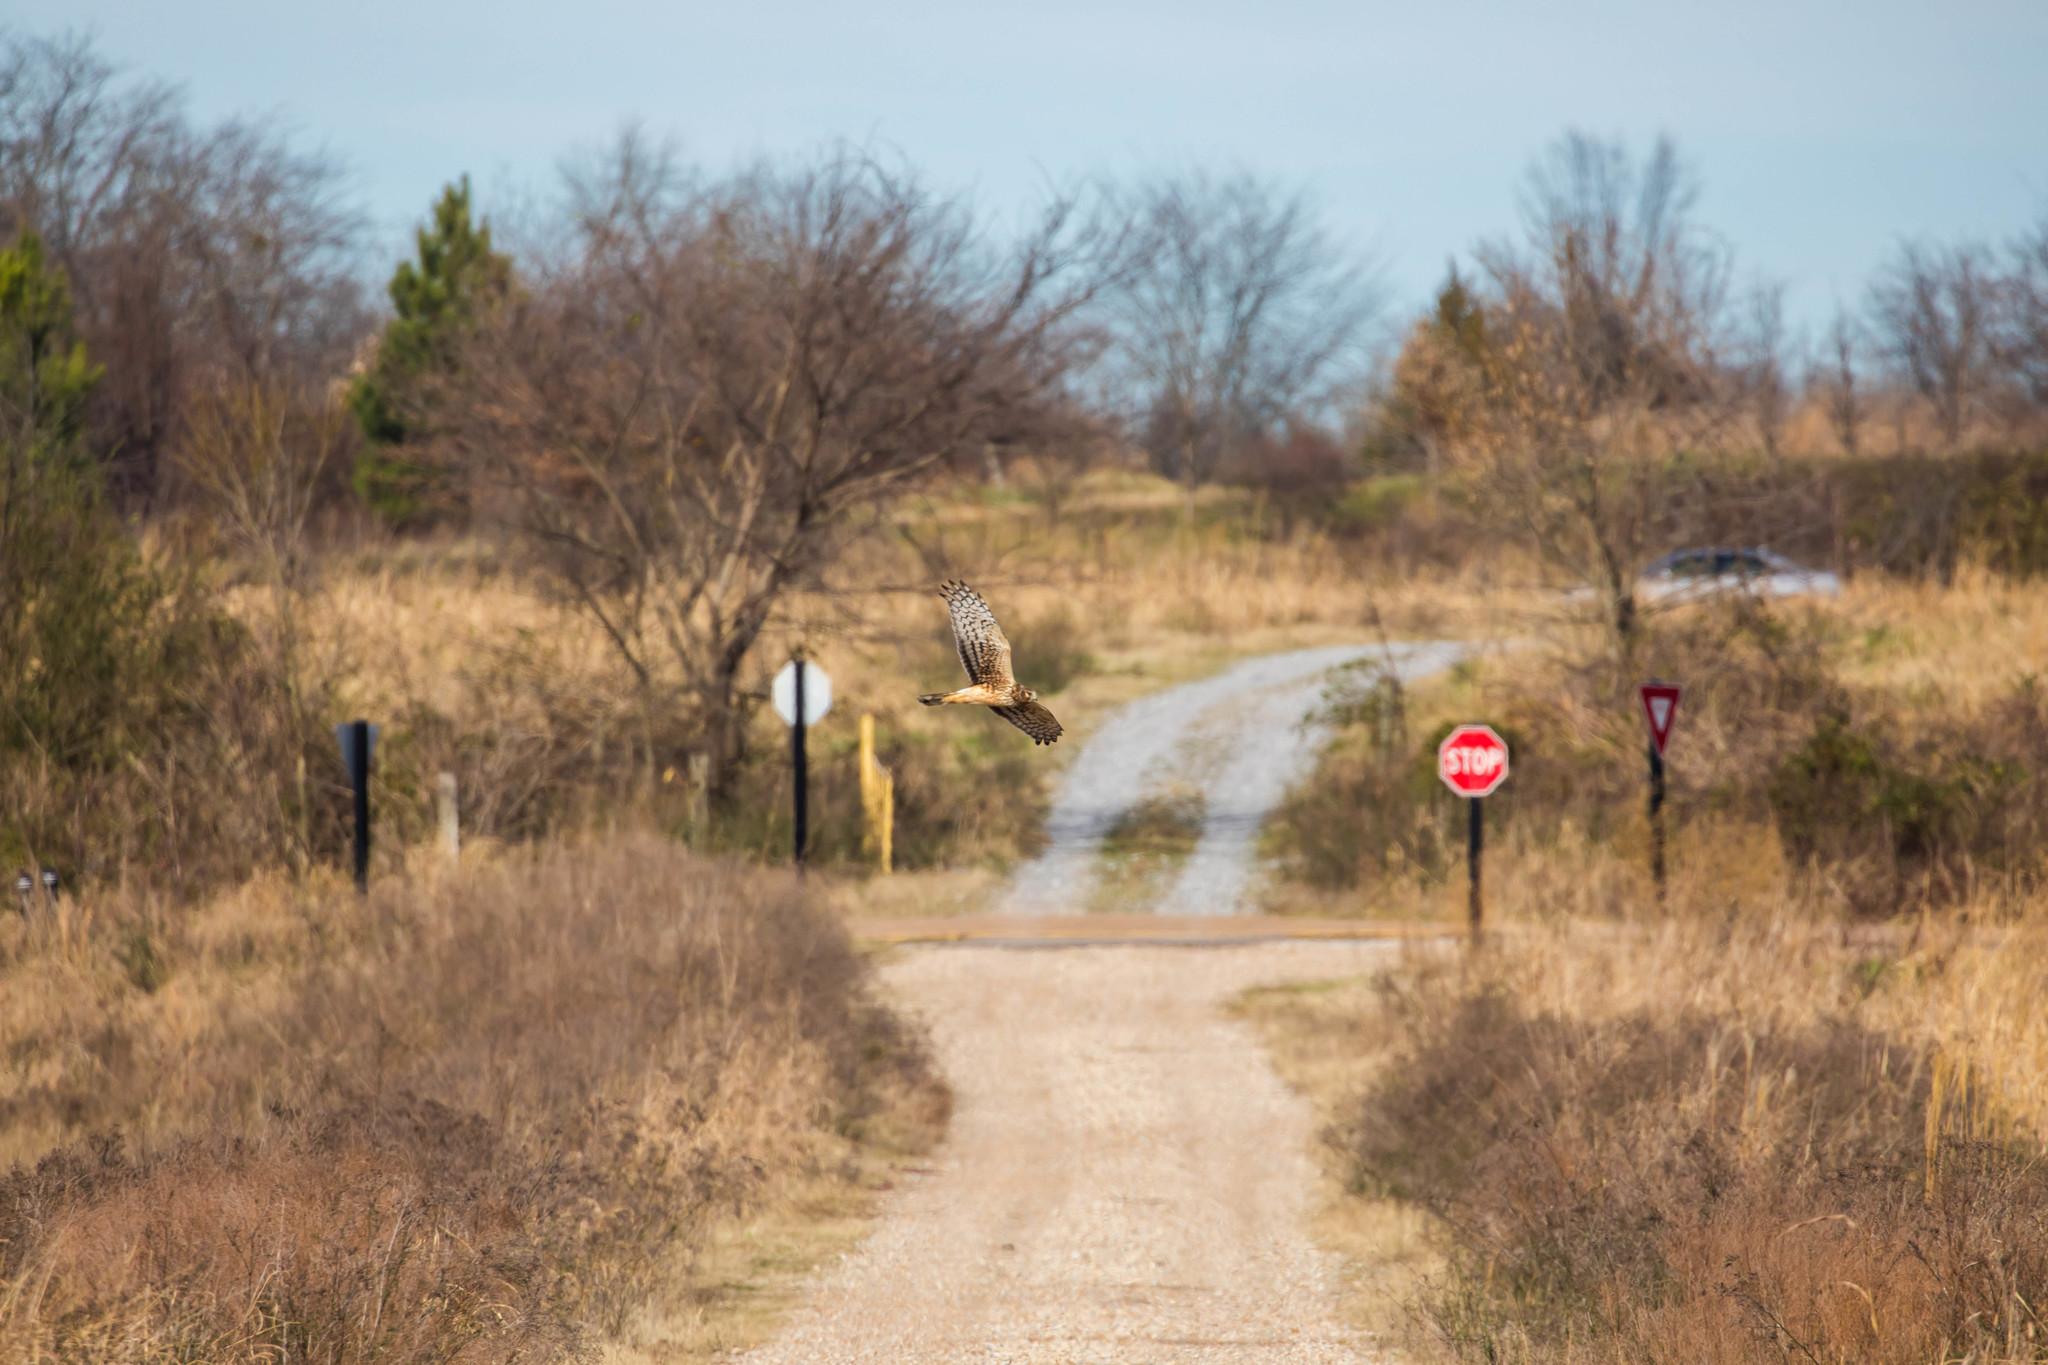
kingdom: Animalia
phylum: Chordata
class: Aves
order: Accipitriformes
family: Accipitridae
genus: Circus
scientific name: Circus cyaneus
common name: Hen harrier
